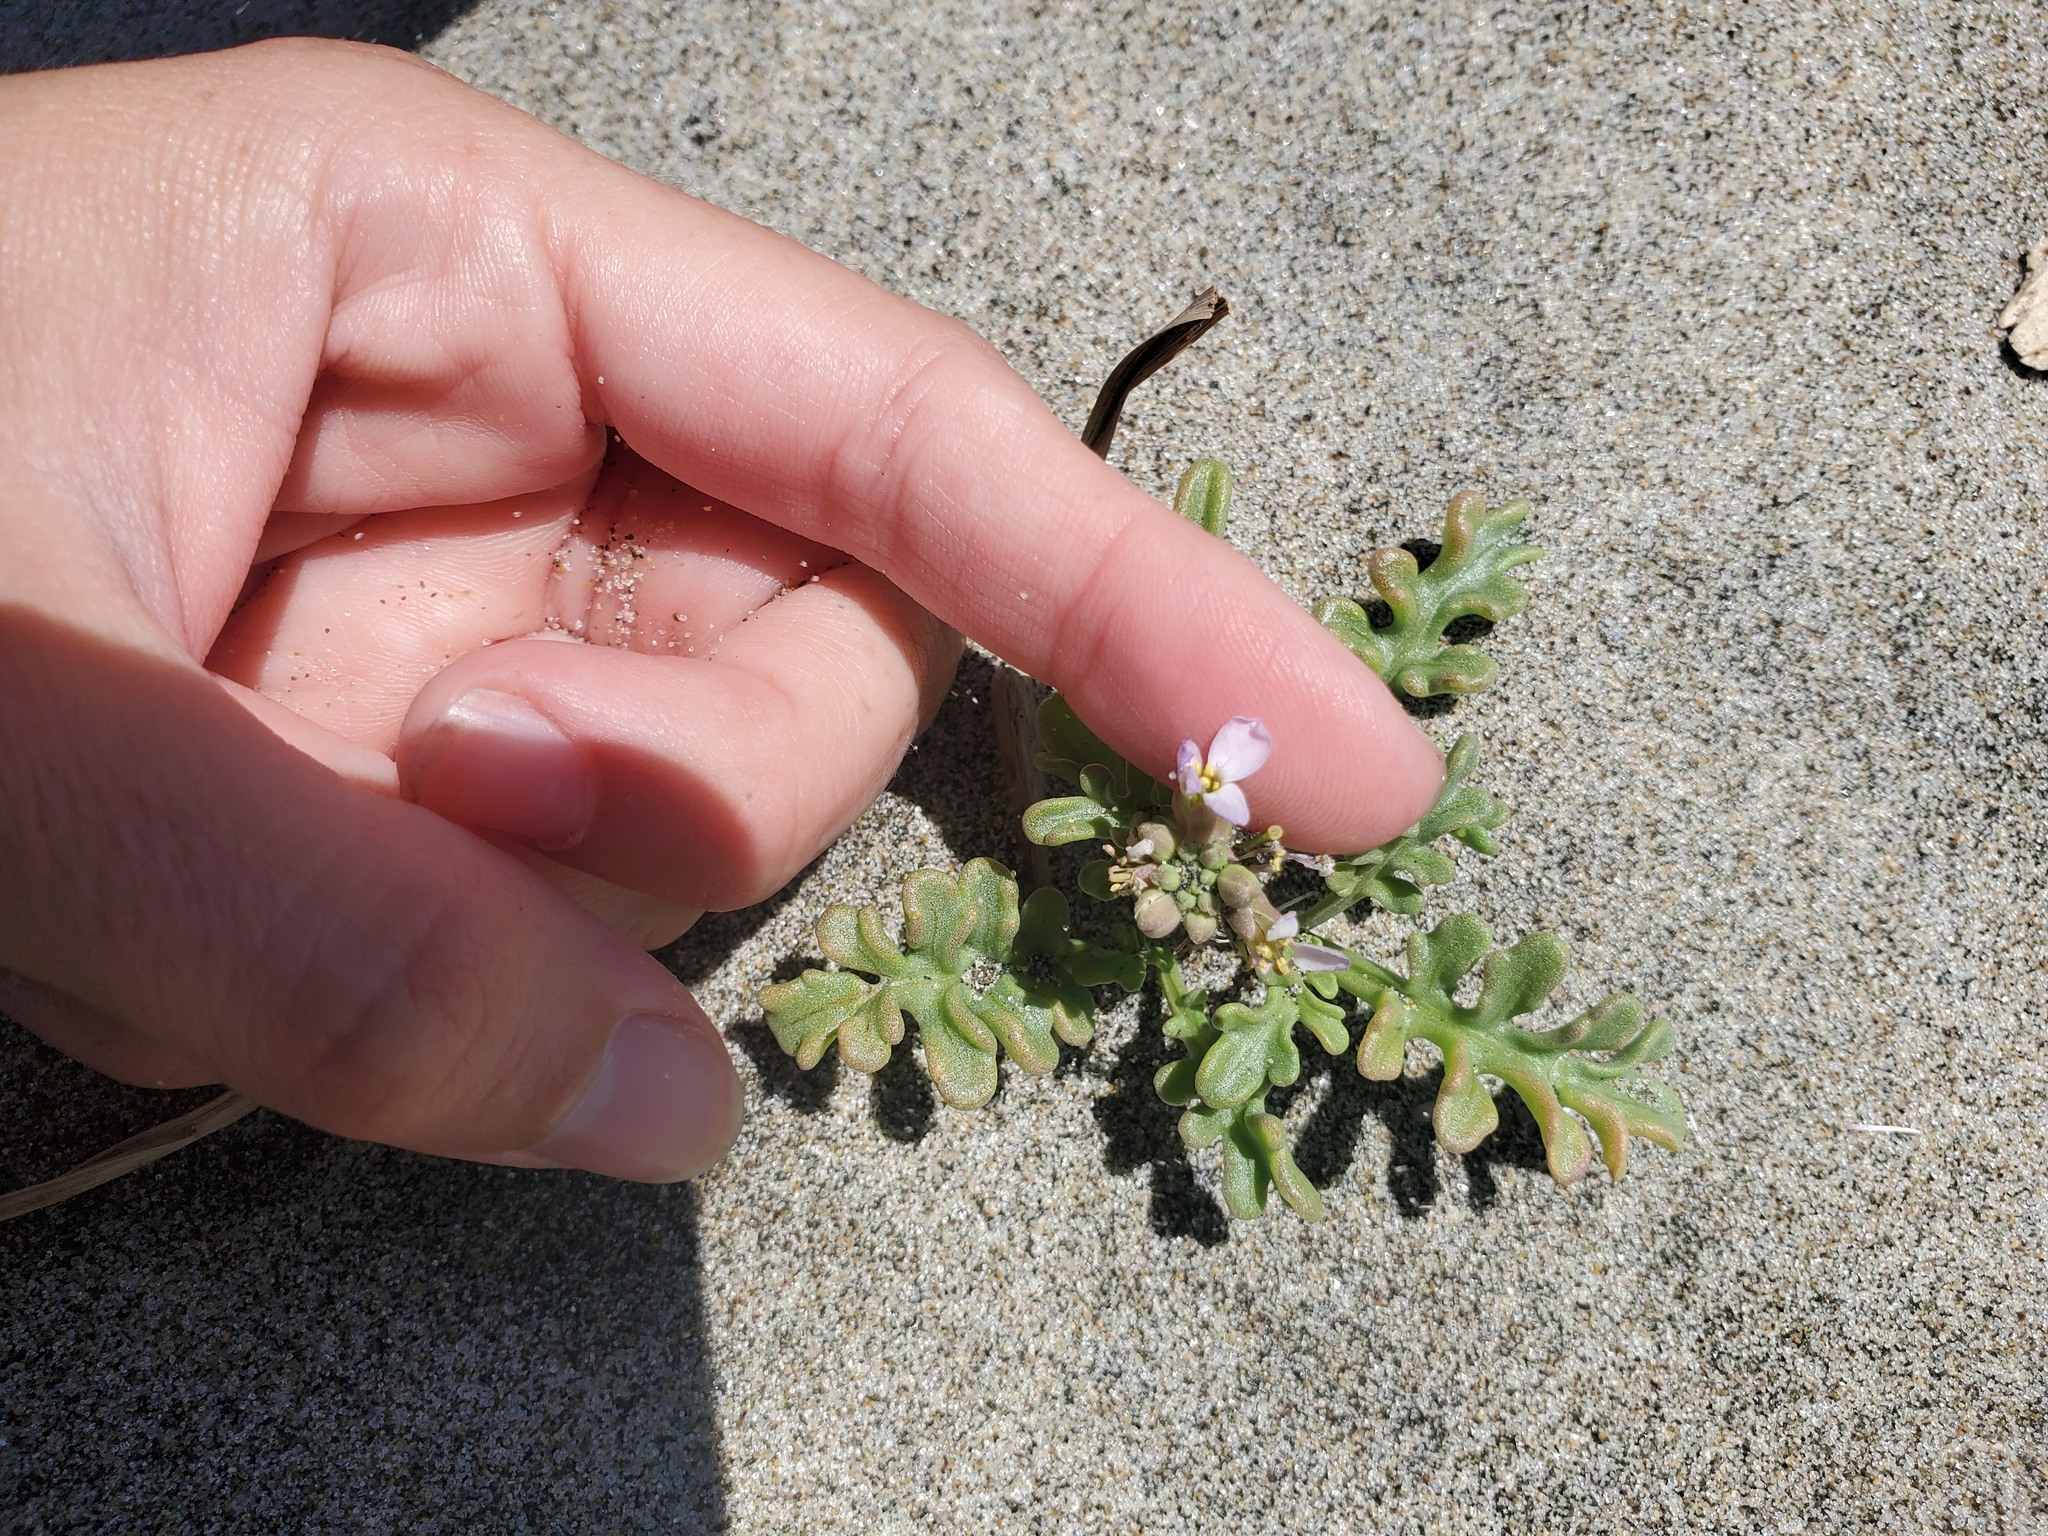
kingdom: Plantae
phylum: Tracheophyta
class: Magnoliopsida
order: Brassicales
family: Brassicaceae
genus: Cakile
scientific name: Cakile maritima
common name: Sea rocket
